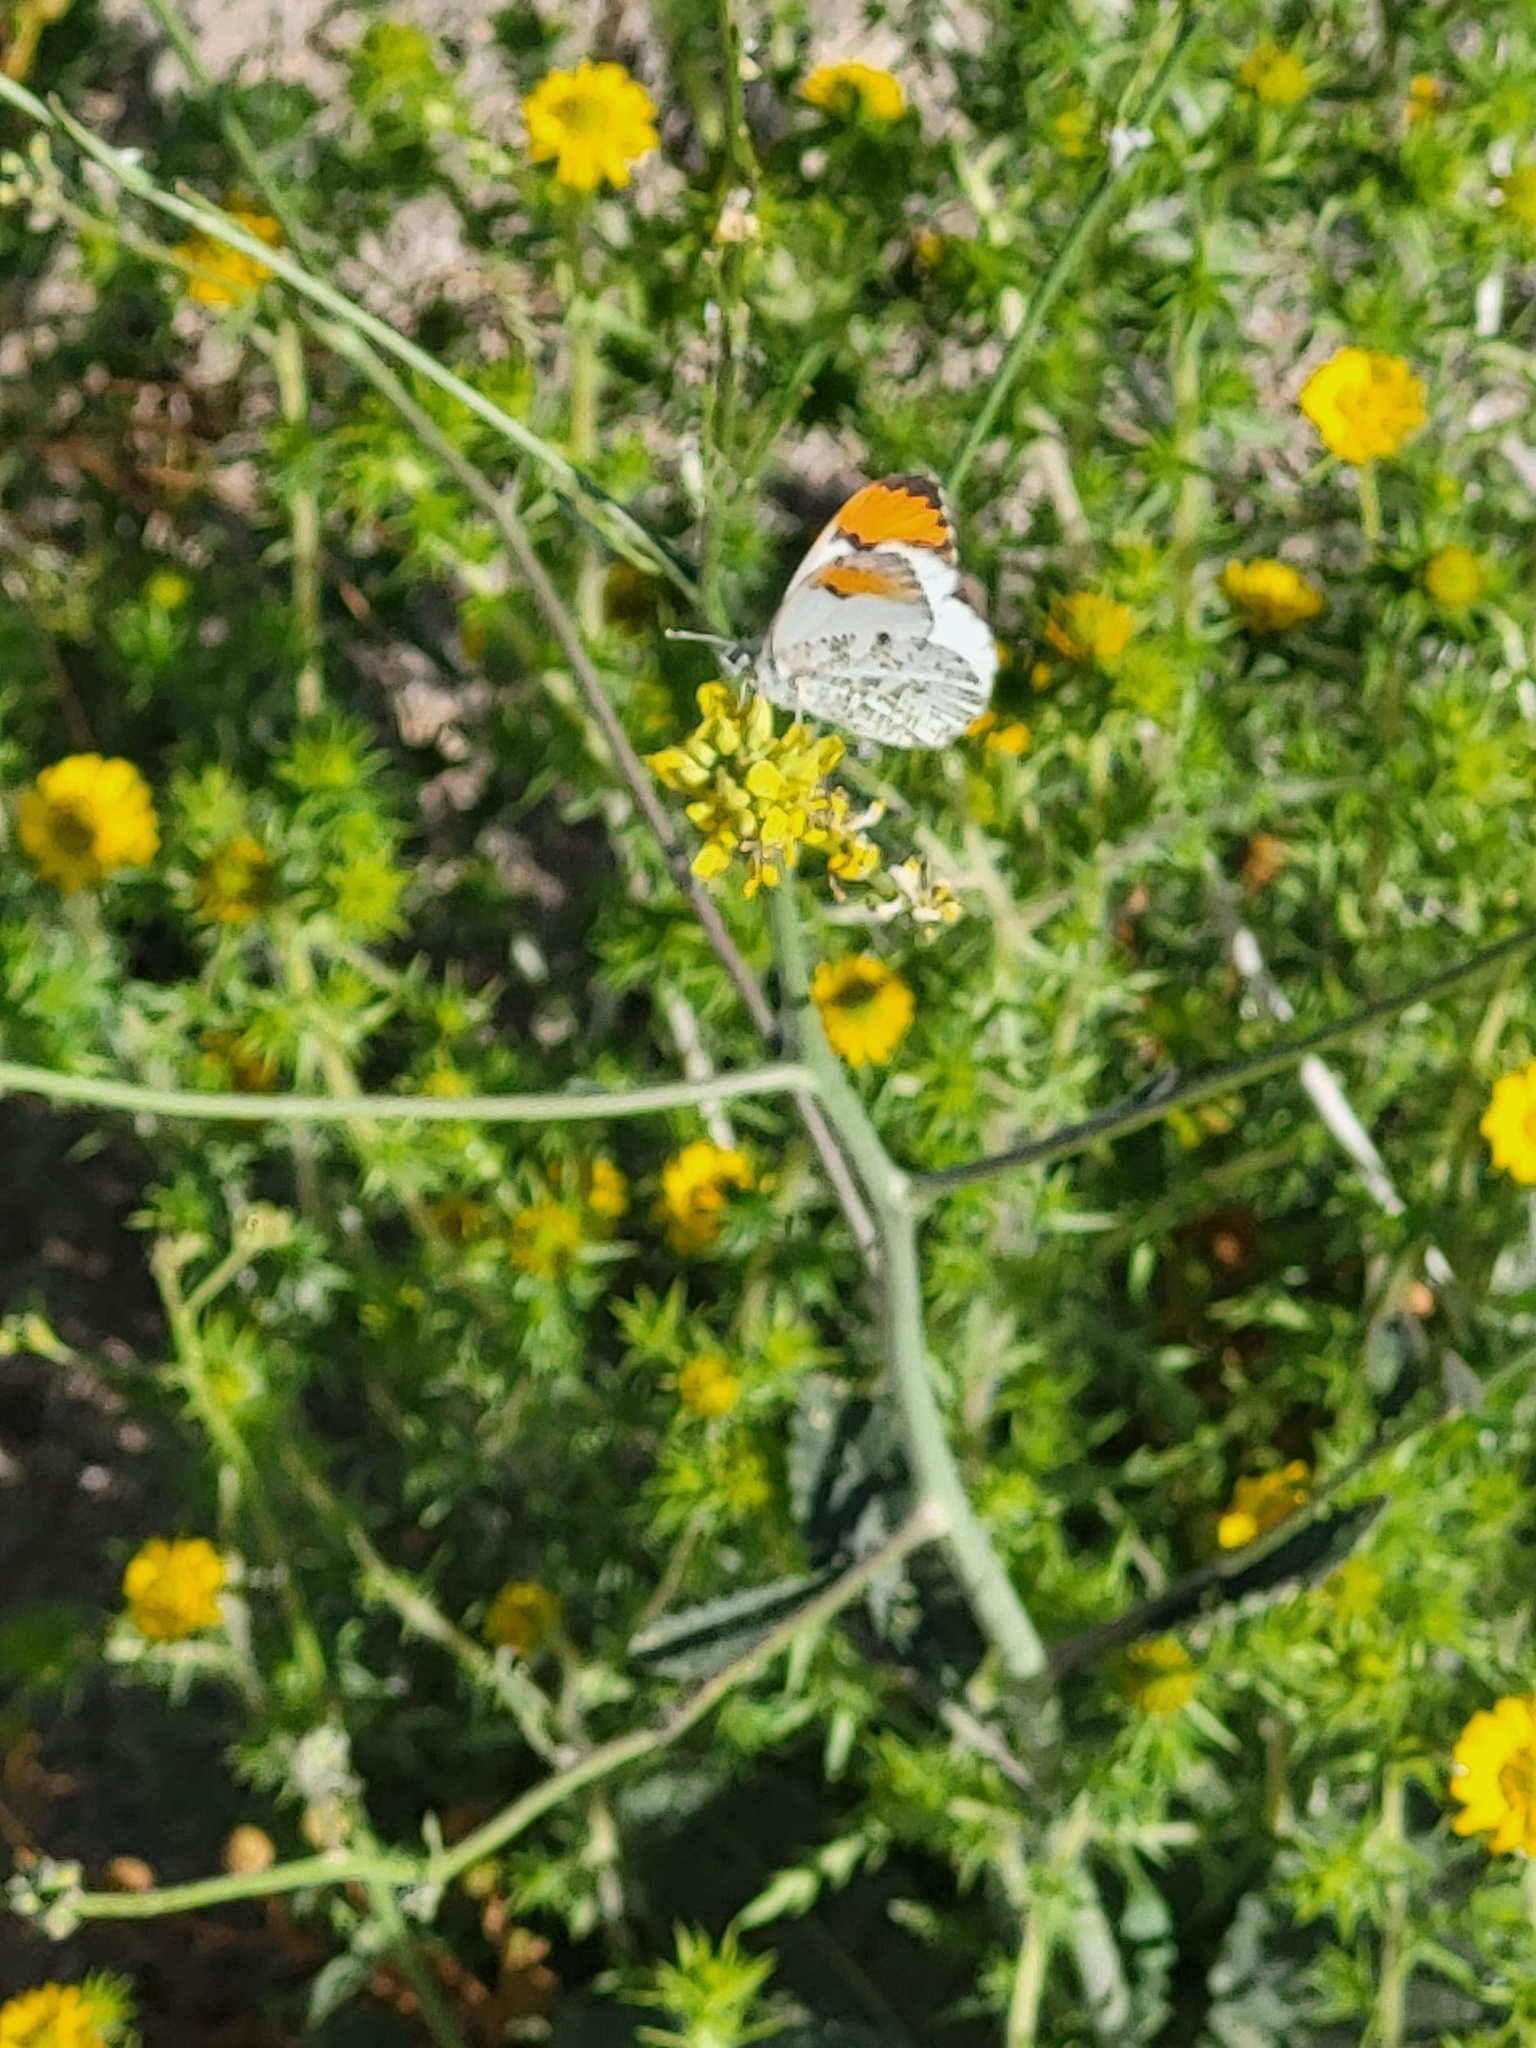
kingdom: Animalia
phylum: Arthropoda
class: Insecta
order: Lepidoptera
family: Pieridae
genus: Anthocharis
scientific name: Anthocharis sara
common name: Sara's orangetip
